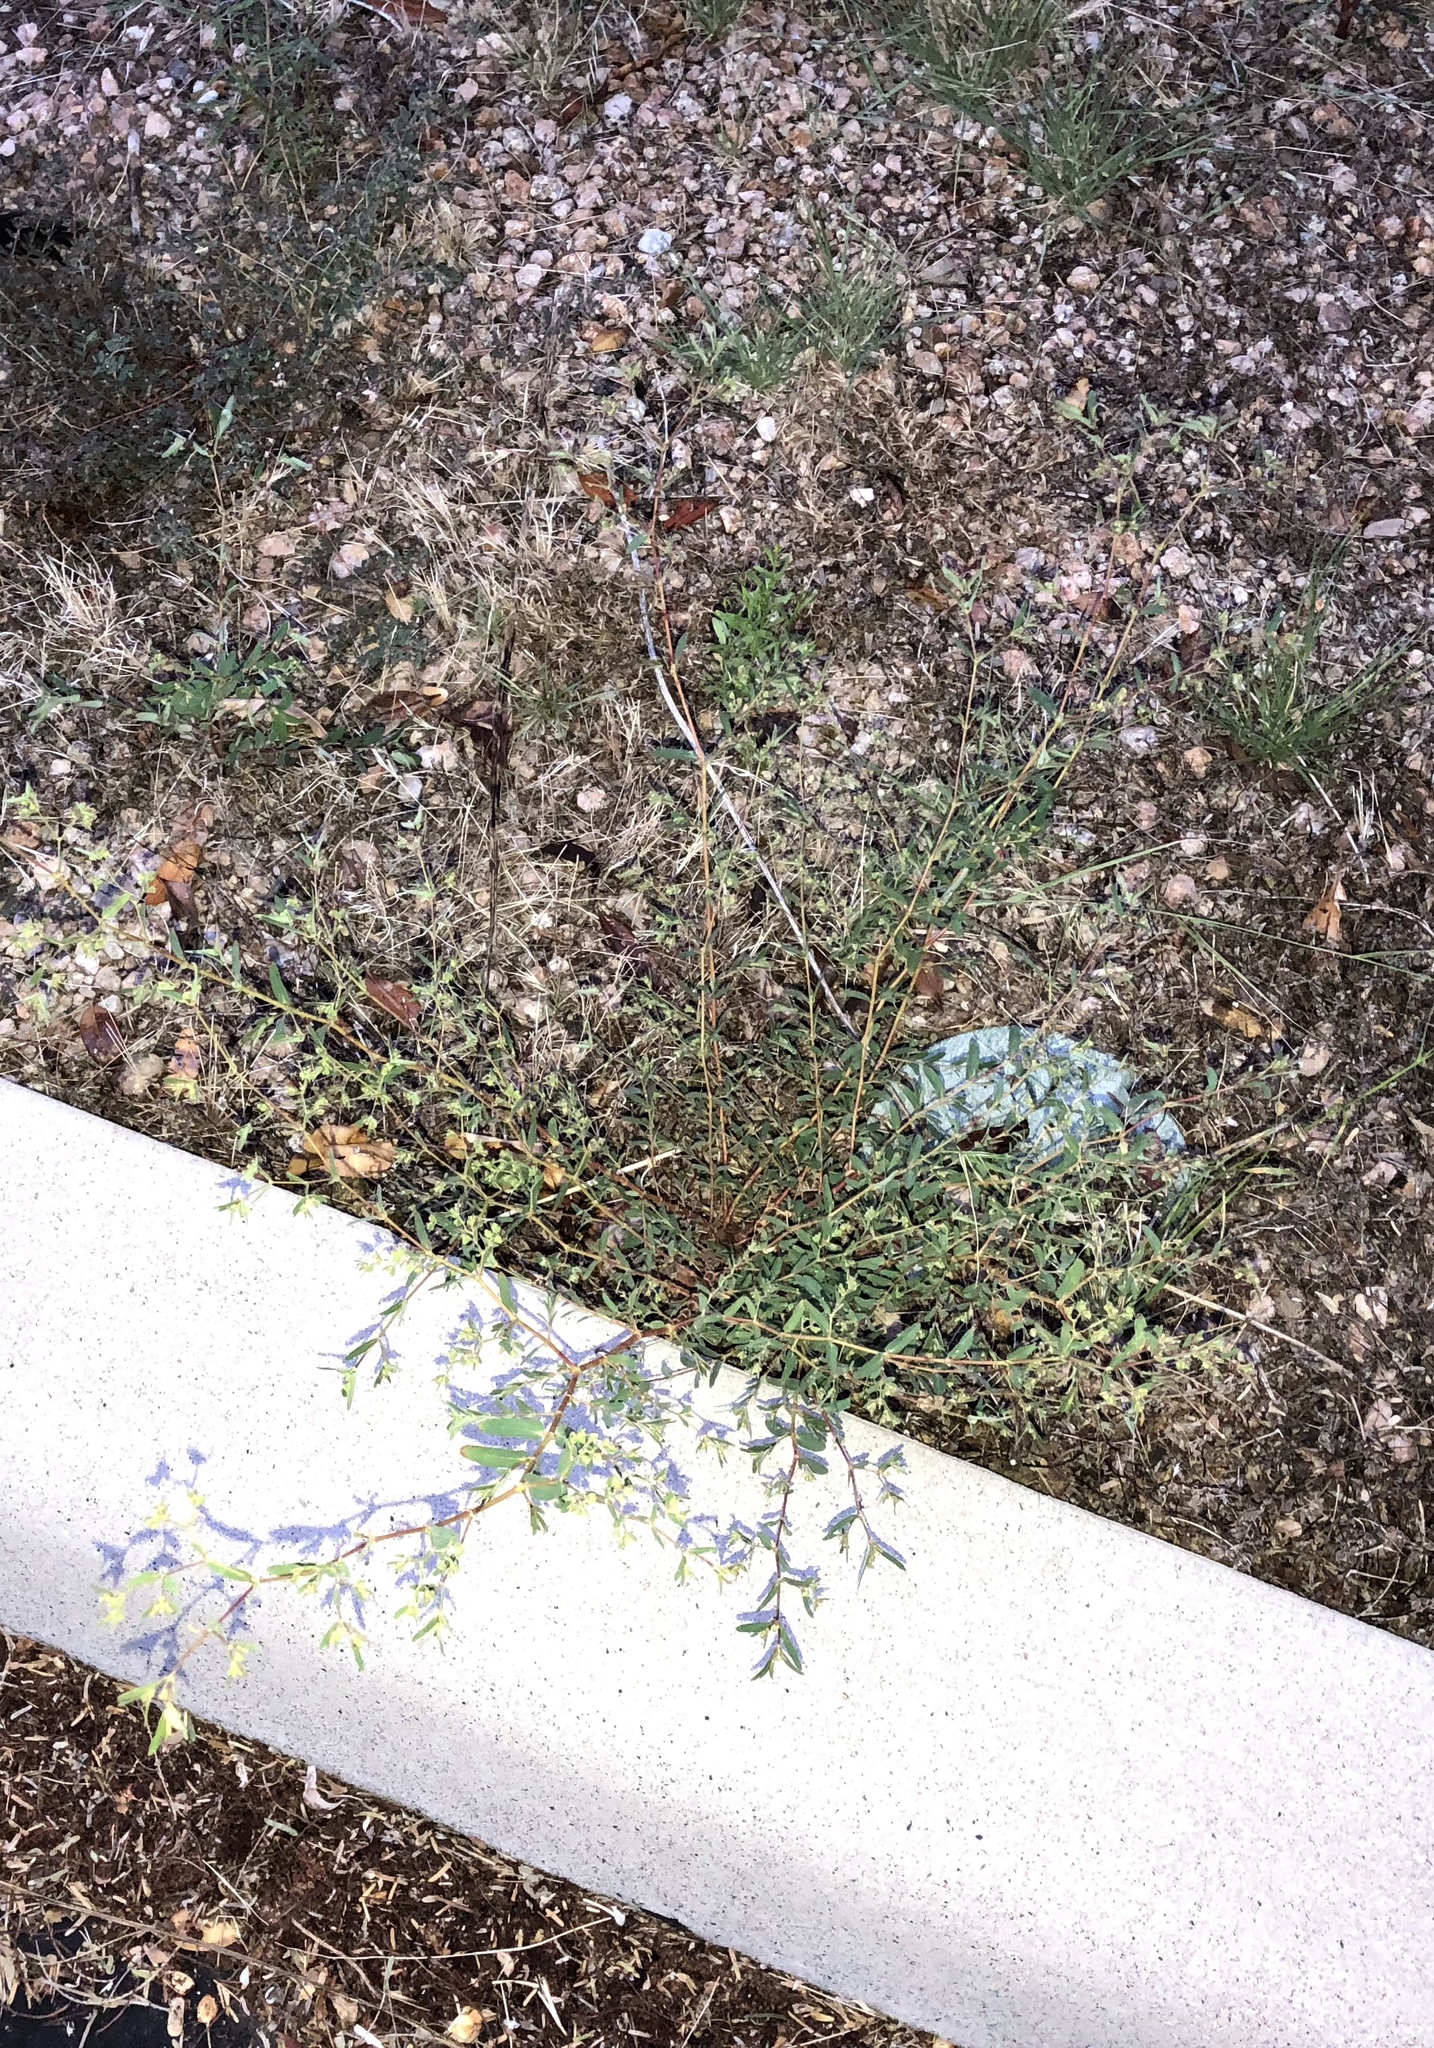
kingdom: Plantae
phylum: Tracheophyta
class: Magnoliopsida
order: Malpighiales
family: Euphorbiaceae
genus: Euphorbia
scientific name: Euphorbia hyssopifolia
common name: Hyssopleaf sandmat
